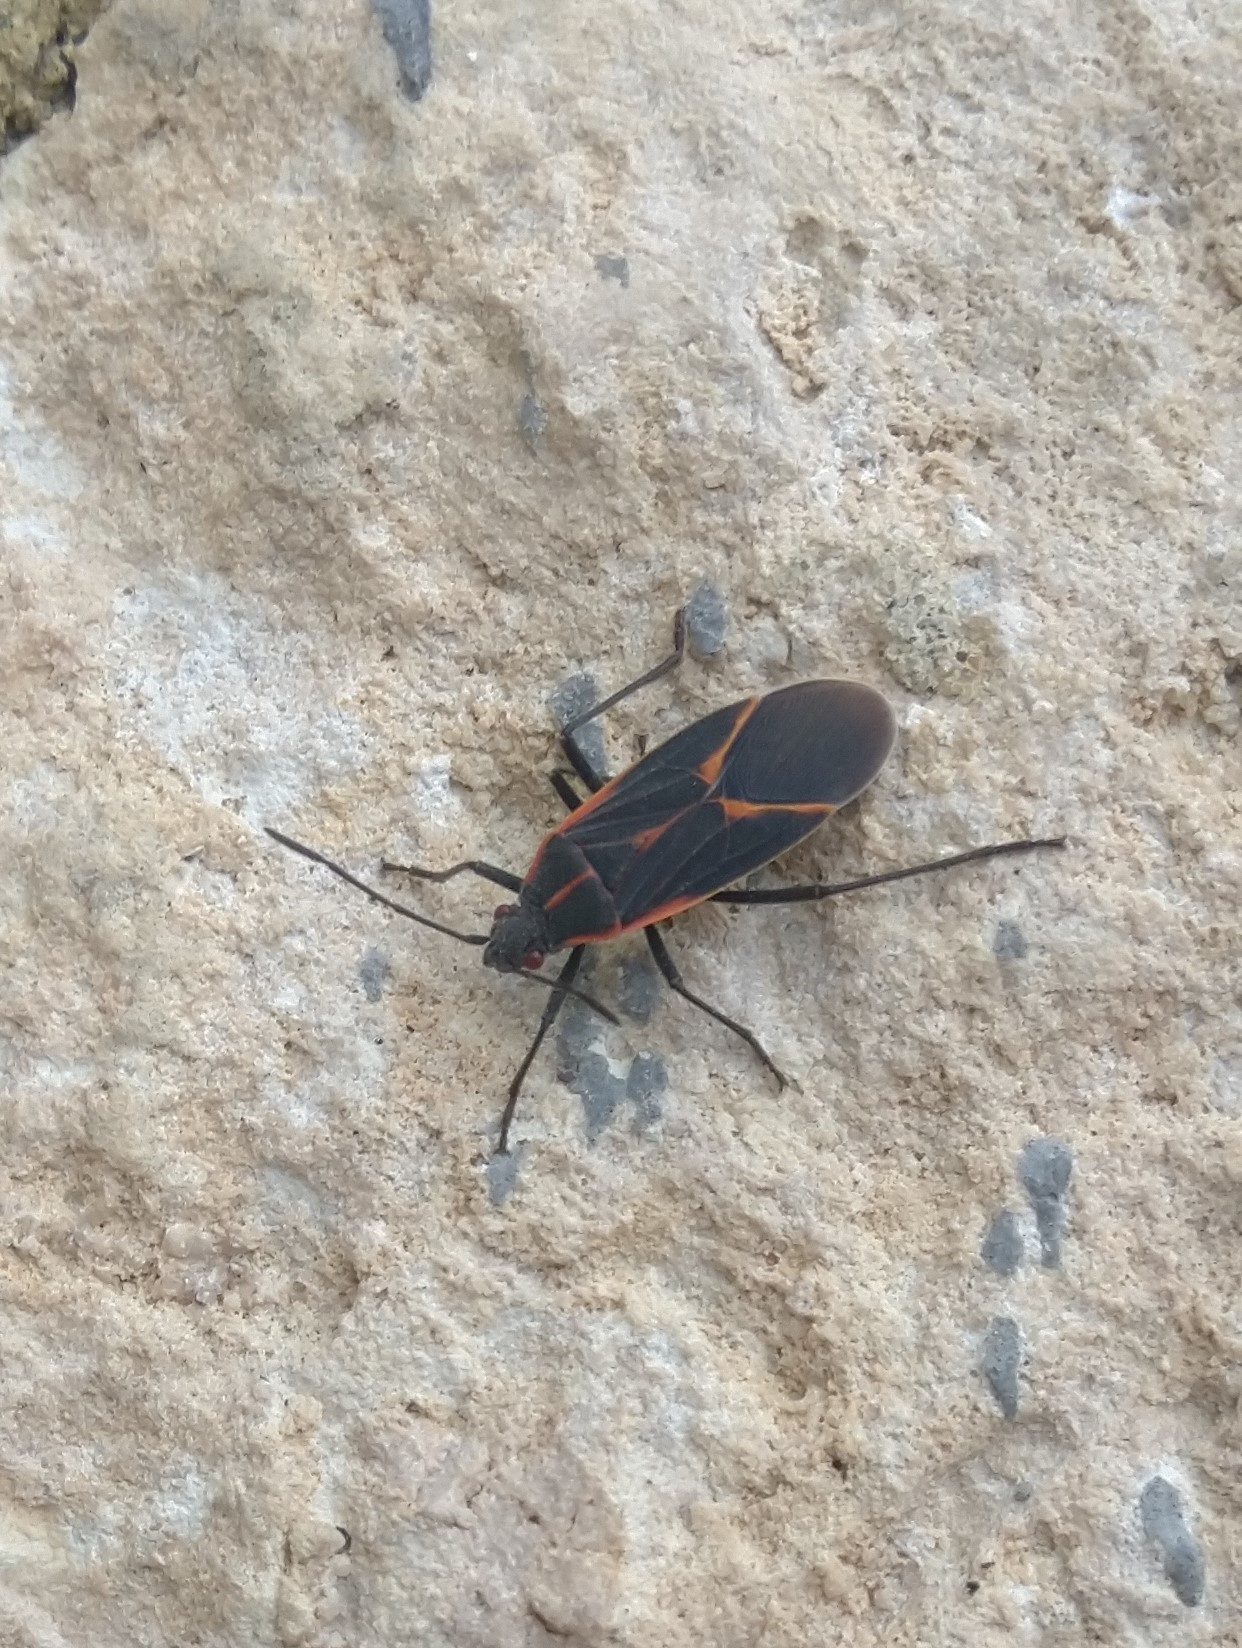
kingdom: Animalia
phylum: Arthropoda
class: Insecta
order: Hemiptera
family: Rhopalidae
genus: Boisea
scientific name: Boisea trivittata
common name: Boxelder bug
